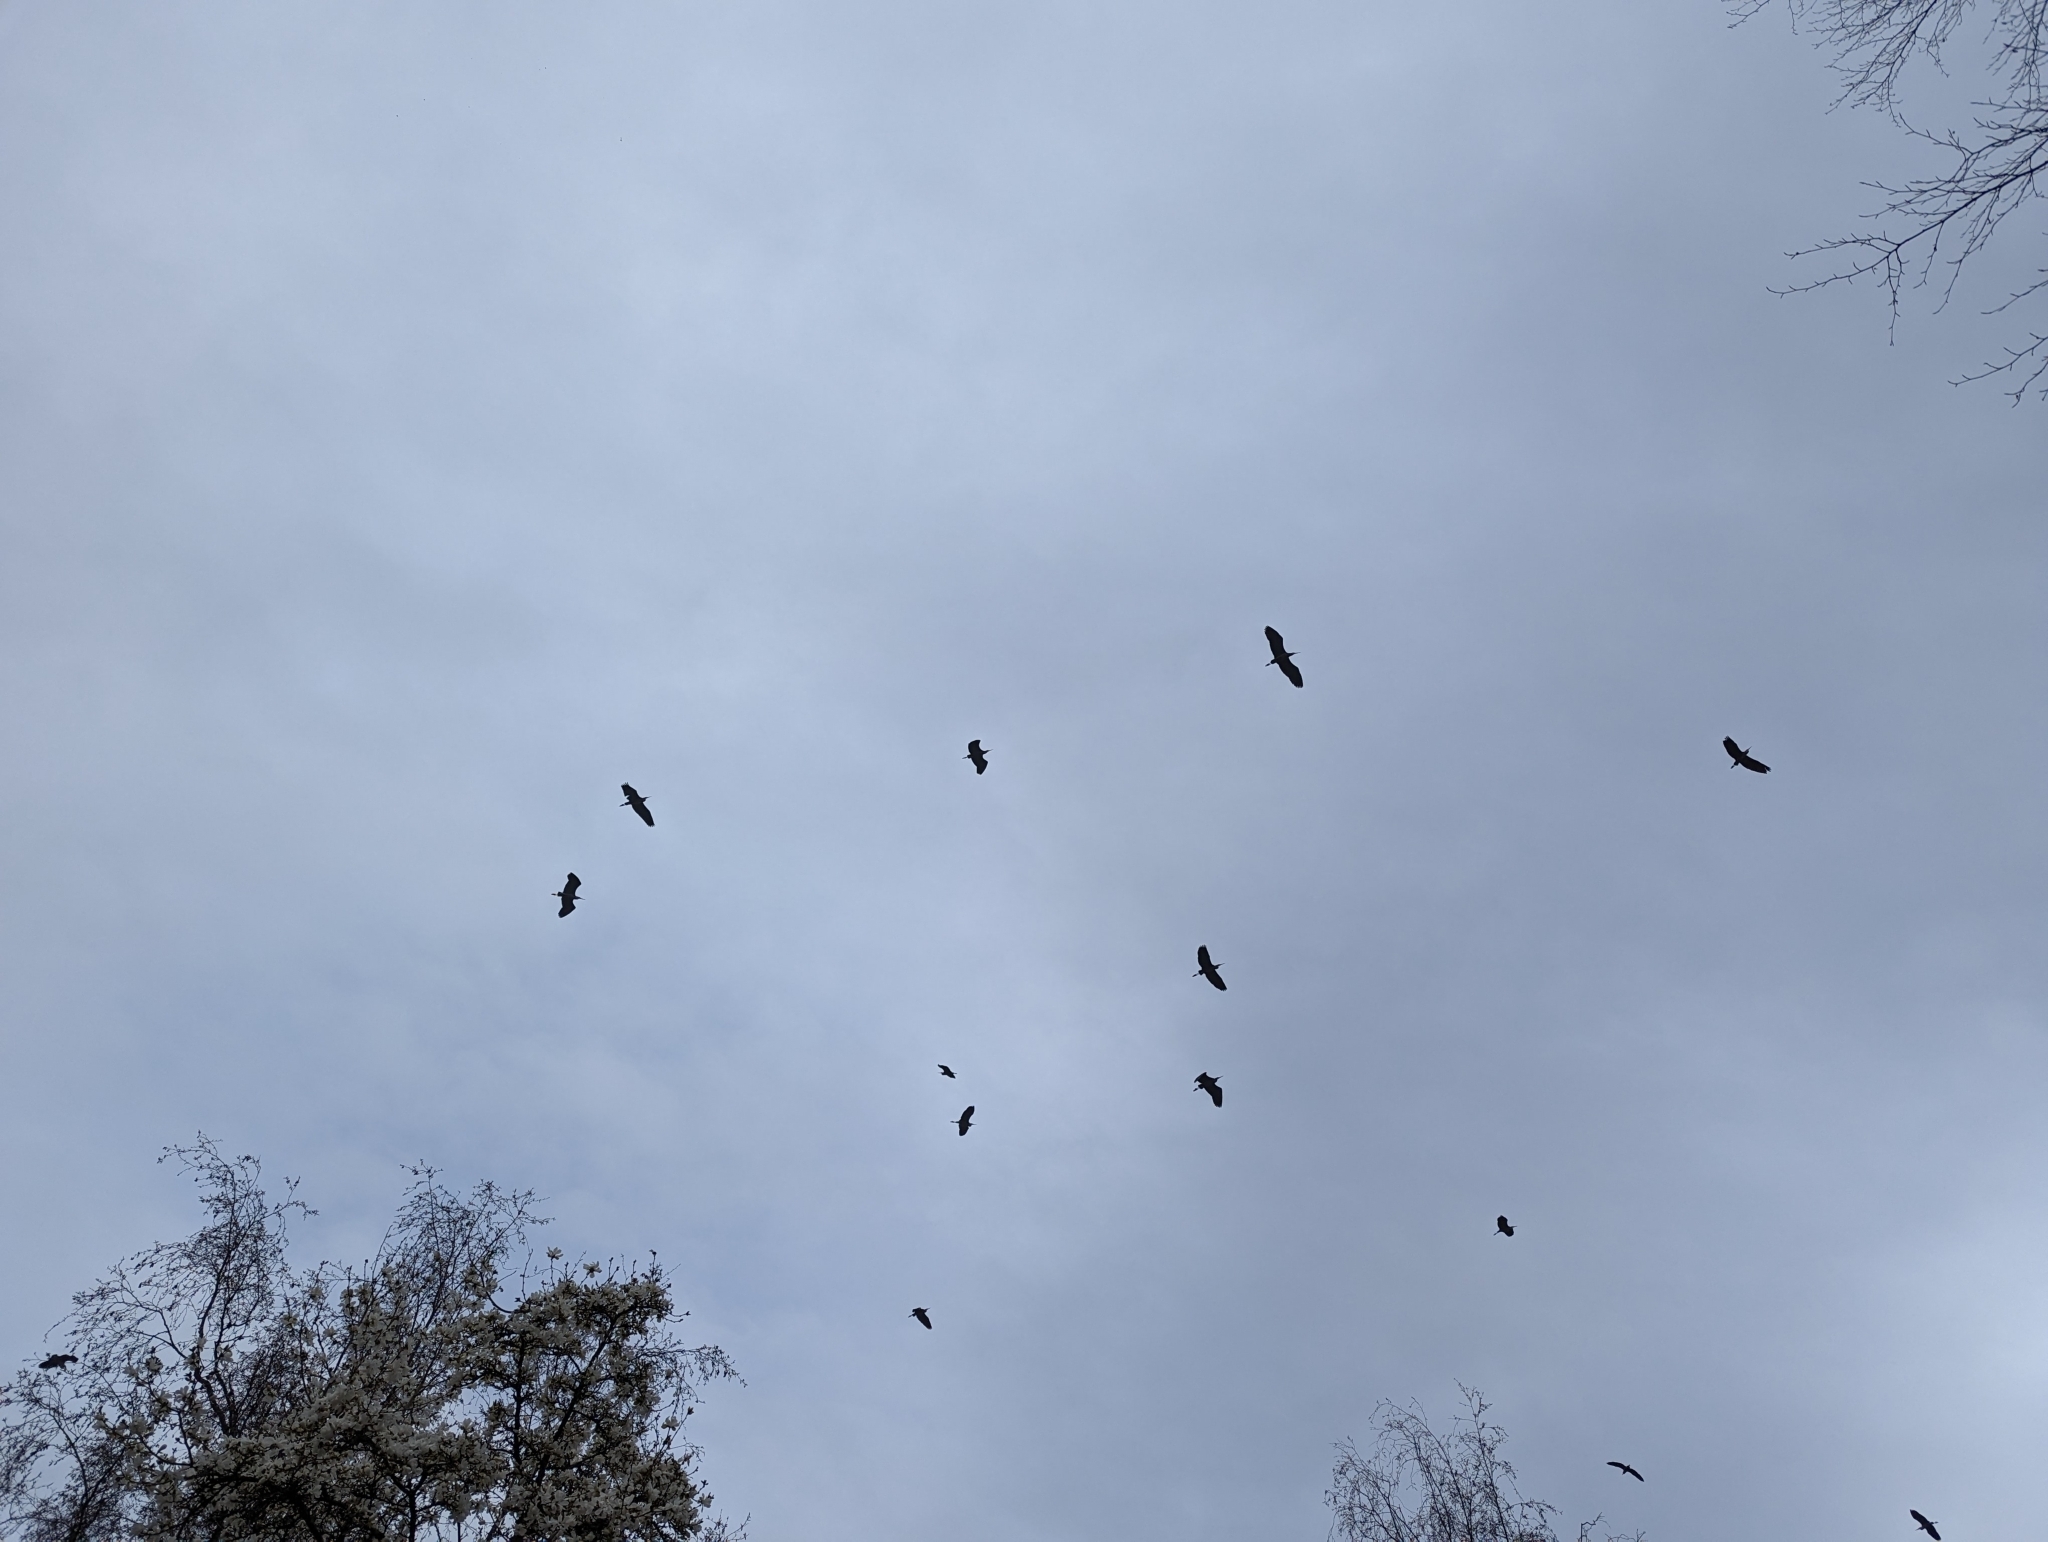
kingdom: Animalia
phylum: Chordata
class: Aves
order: Pelecaniformes
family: Ardeidae
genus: Ardea
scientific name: Ardea herodias
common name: Great blue heron
